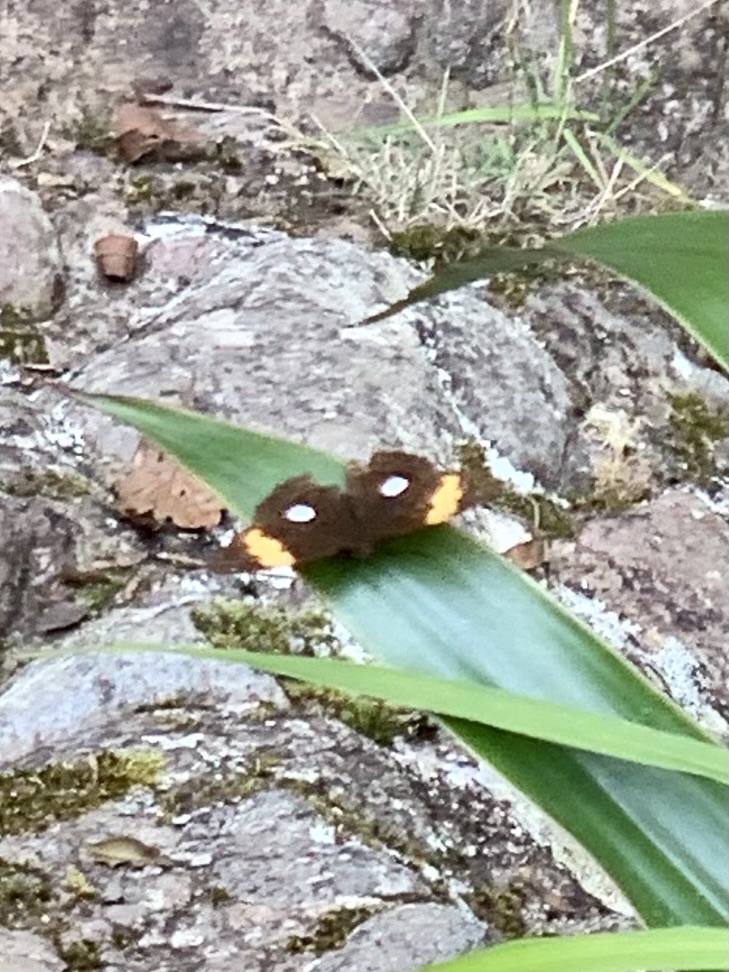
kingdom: Animalia
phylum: Arthropoda
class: Insecta
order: Lepidoptera
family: Nymphalidae
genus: Limenitis
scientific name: Limenitis leucophthalma
